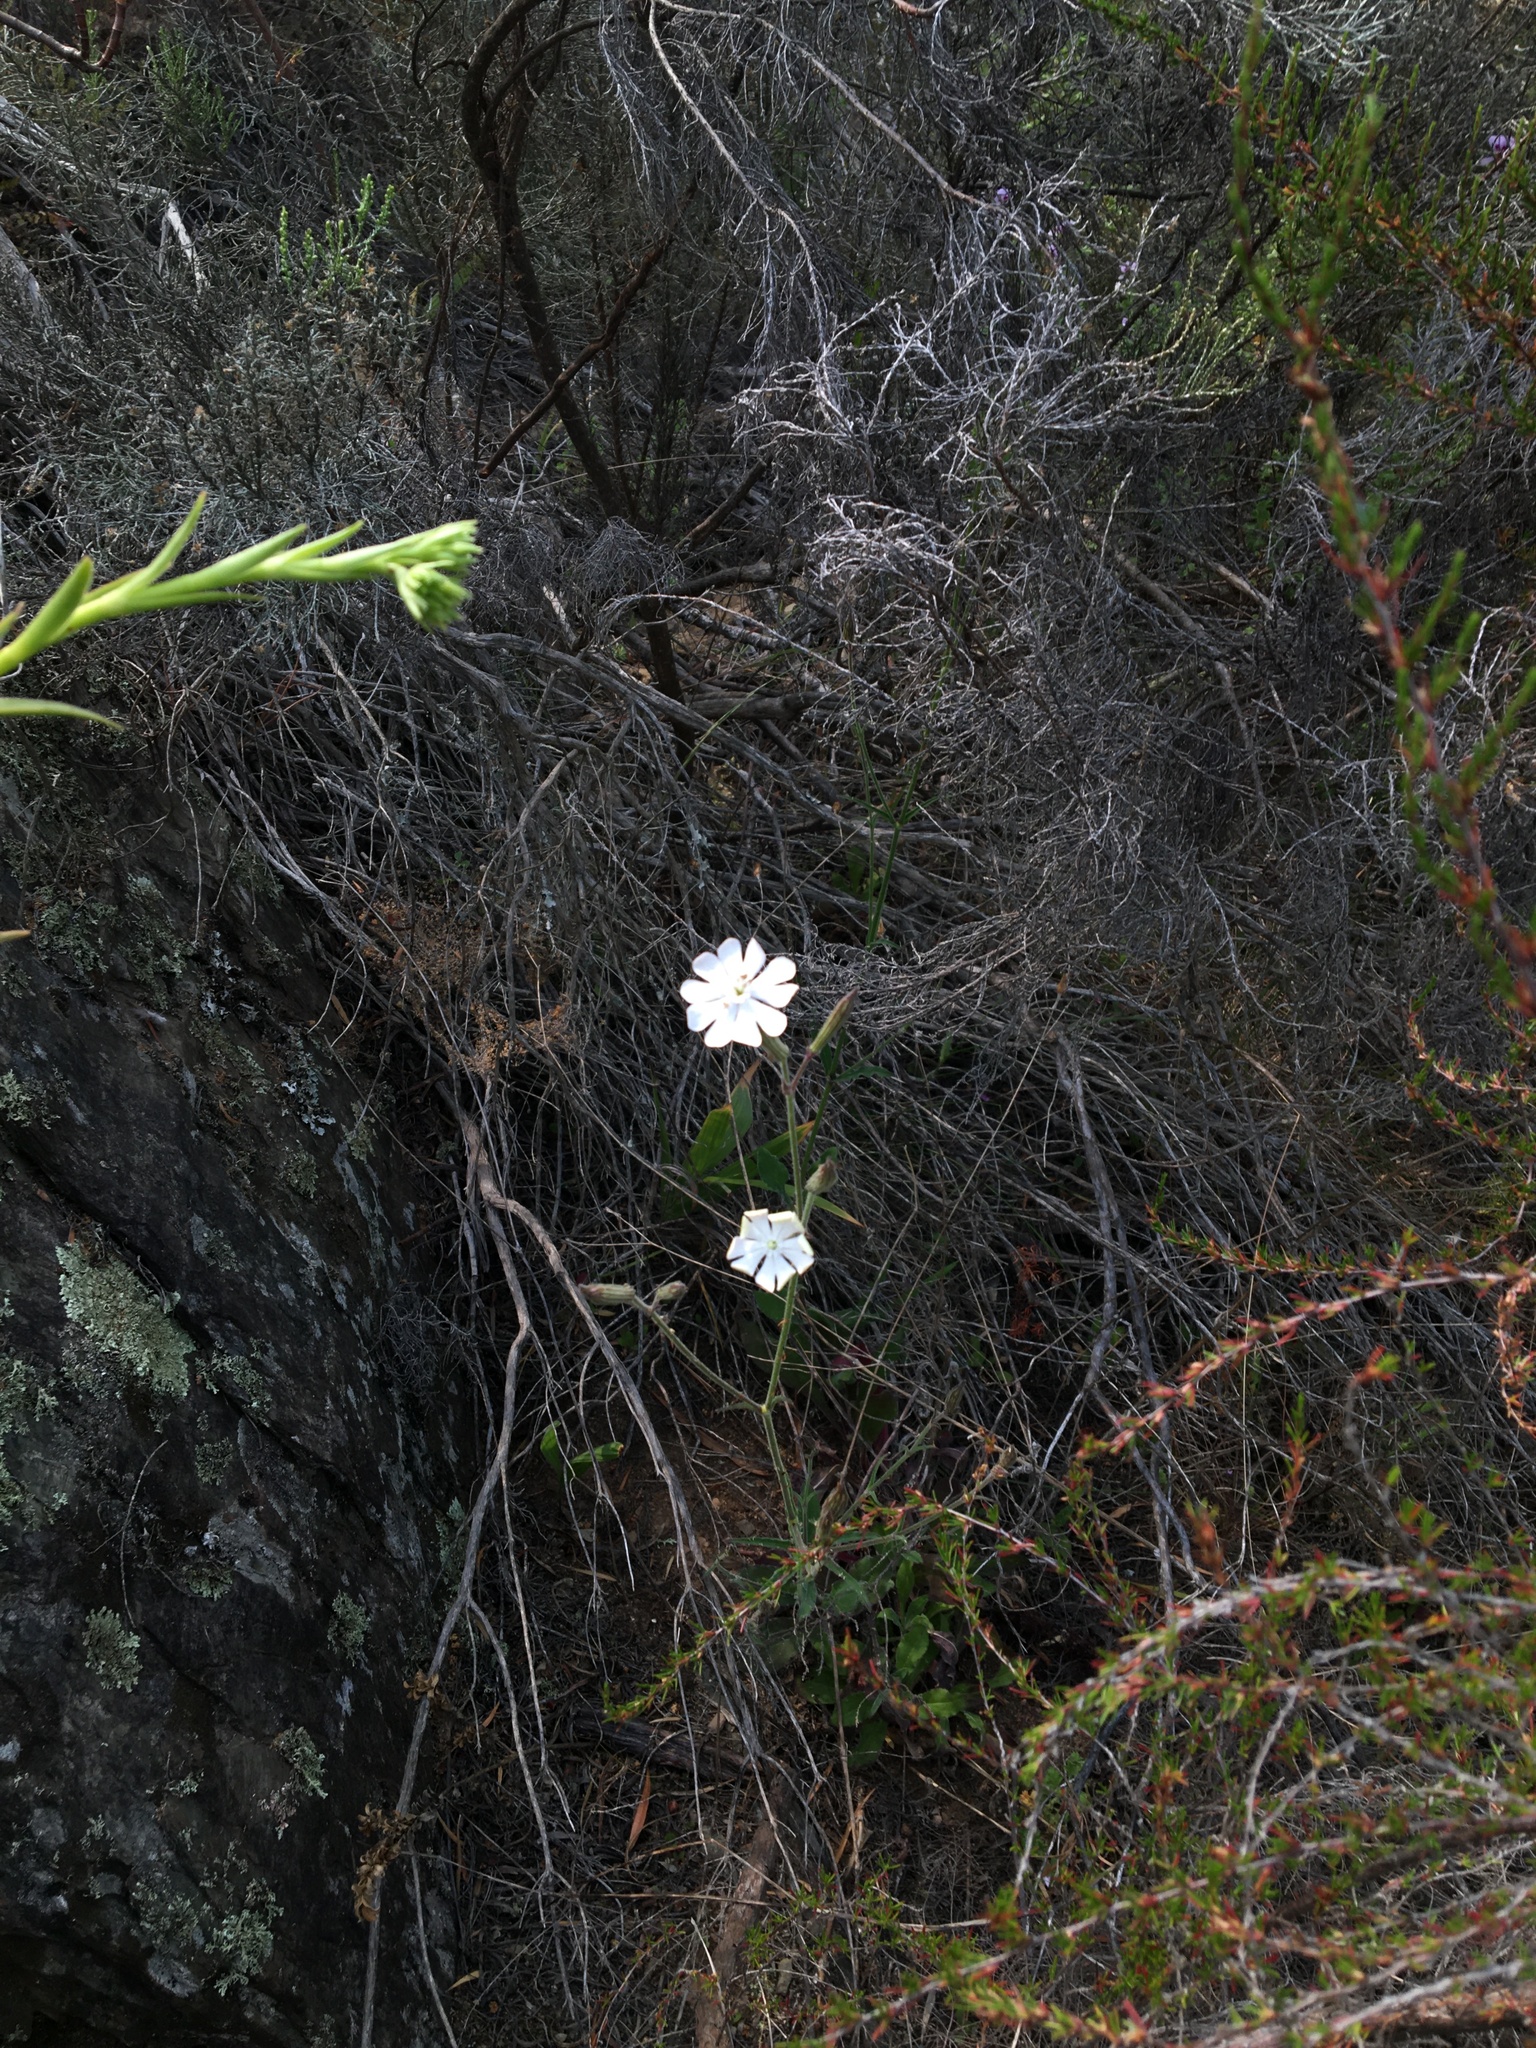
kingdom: Plantae
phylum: Tracheophyta
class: Magnoliopsida
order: Caryophyllales
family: Caryophyllaceae
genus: Silene
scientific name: Silene undulata
